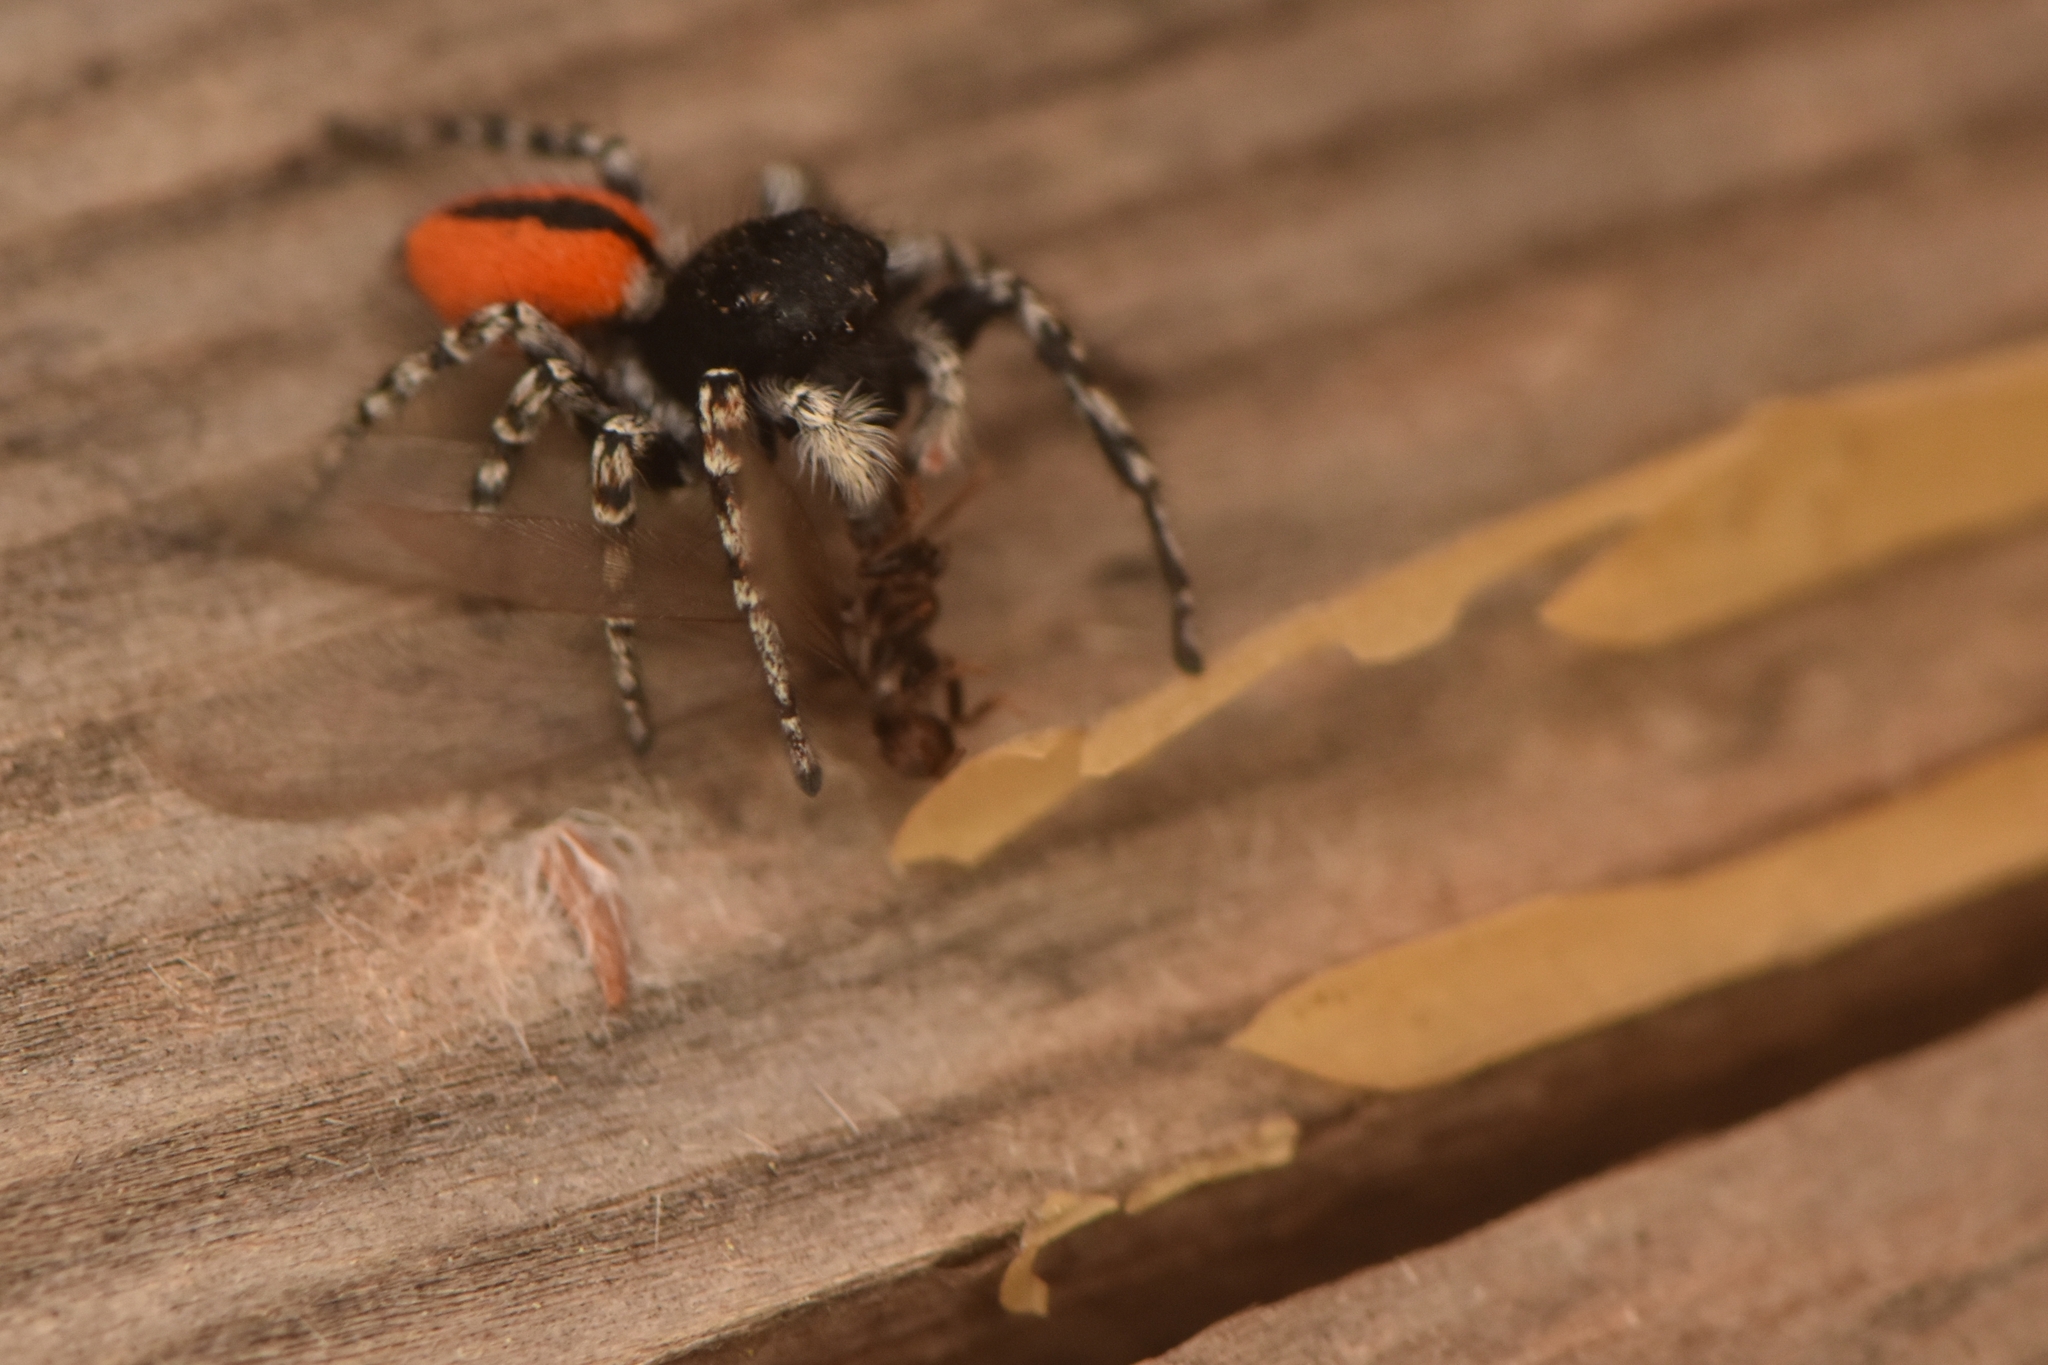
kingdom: Animalia
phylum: Arthropoda
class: Arachnida
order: Araneae
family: Salticidae
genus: Philaeus
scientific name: Philaeus chrysops
